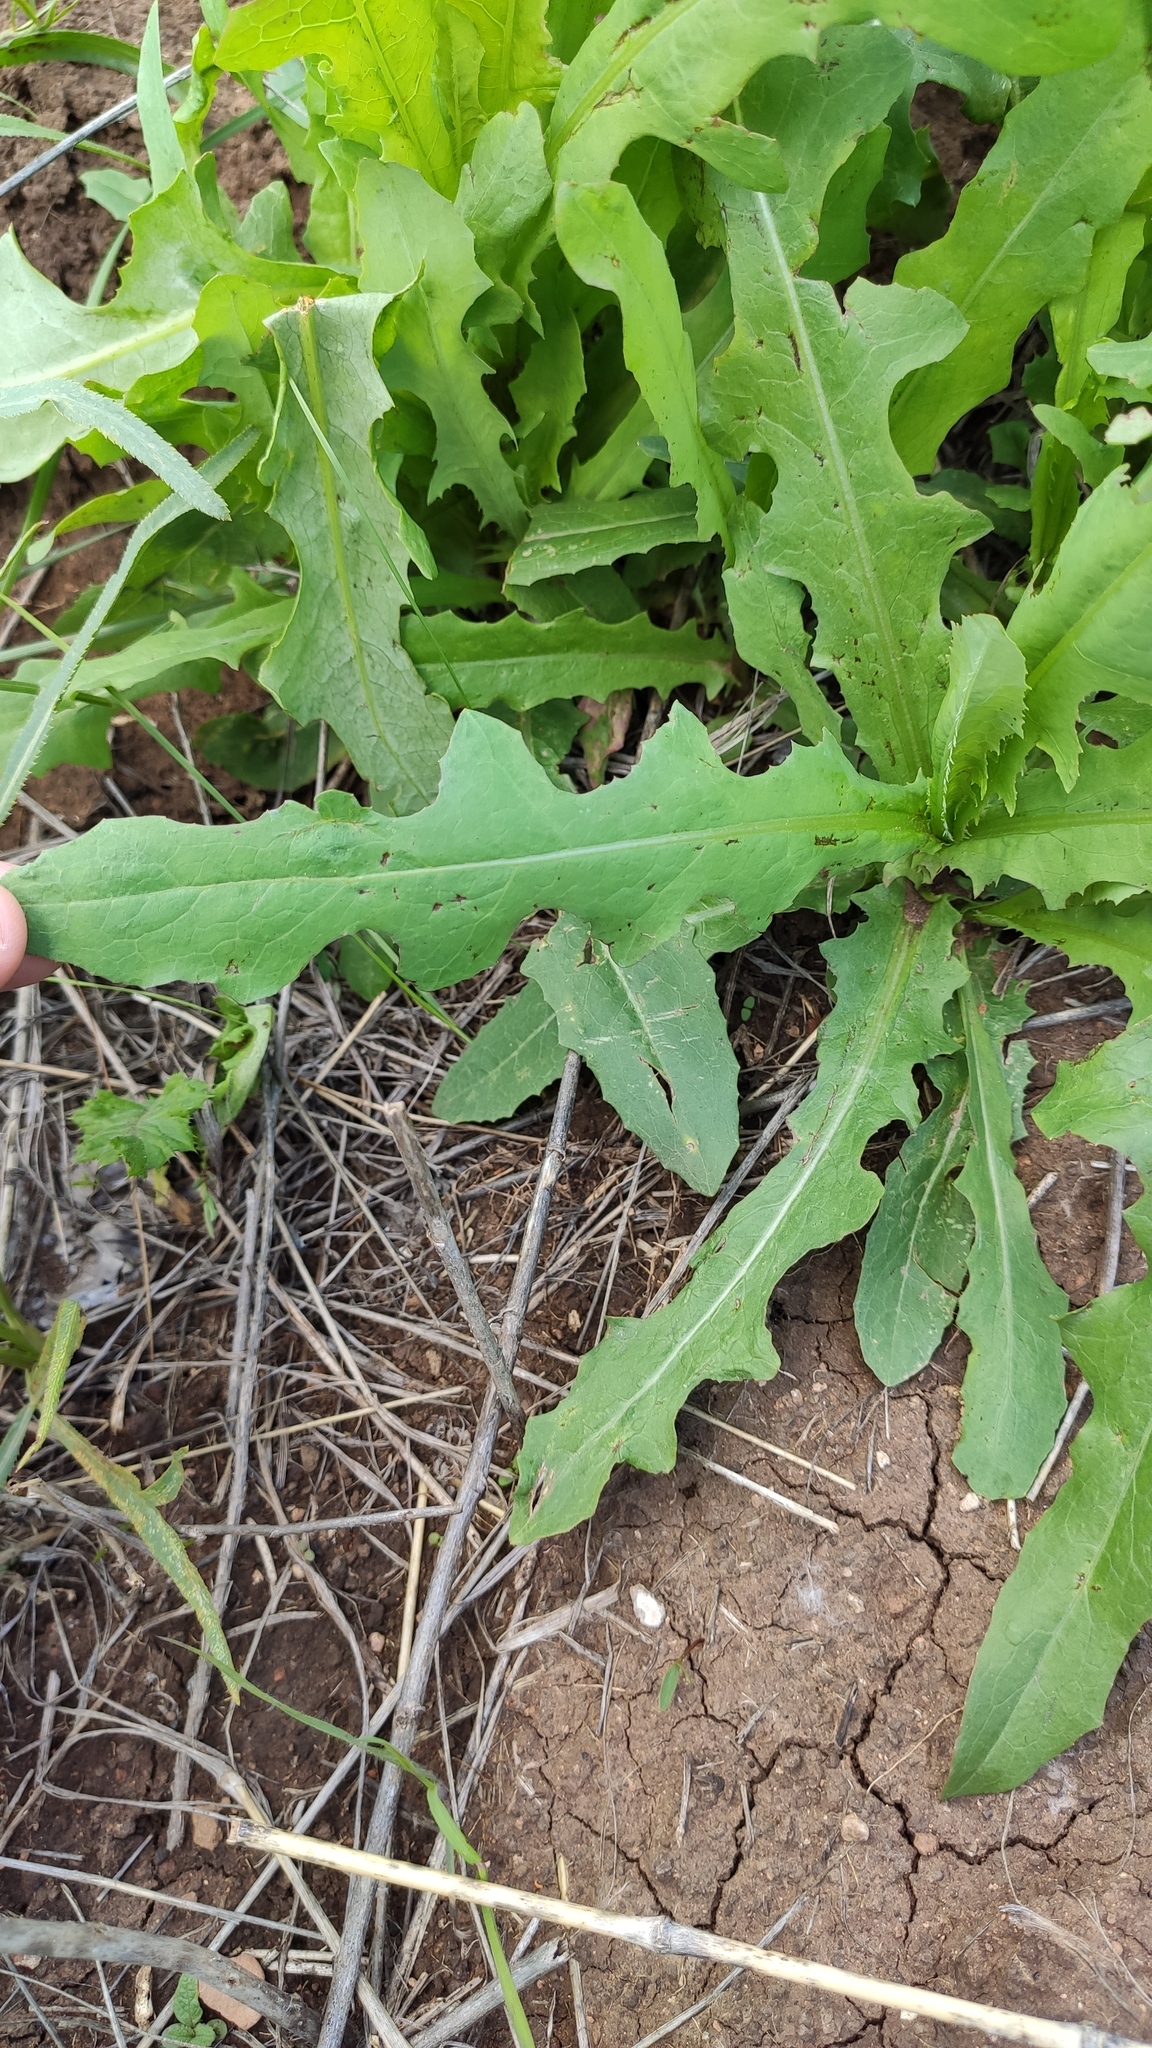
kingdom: Plantae
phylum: Tracheophyta
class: Magnoliopsida
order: Asterales
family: Asteraceae
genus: Lactuca
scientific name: Lactuca serriola
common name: Prickly lettuce
